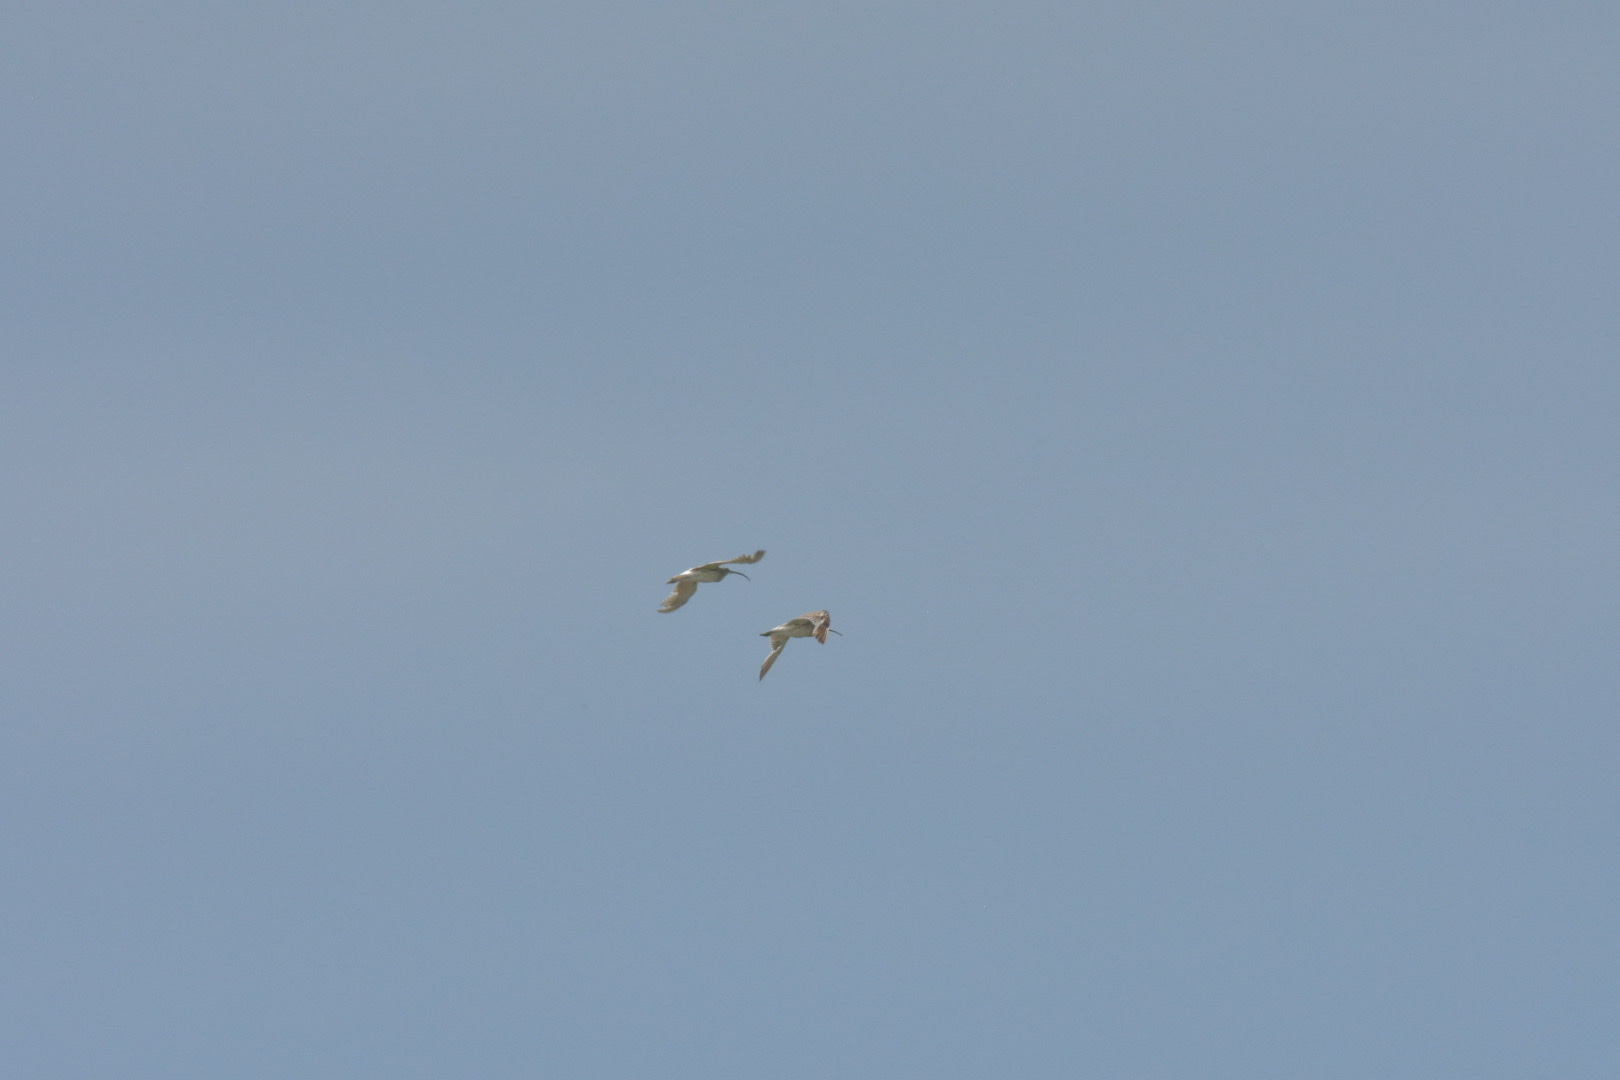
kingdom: Animalia
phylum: Chordata
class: Aves
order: Charadriiformes
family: Scolopacidae
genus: Numenius
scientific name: Numenius arquata
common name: Eurasian curlew
